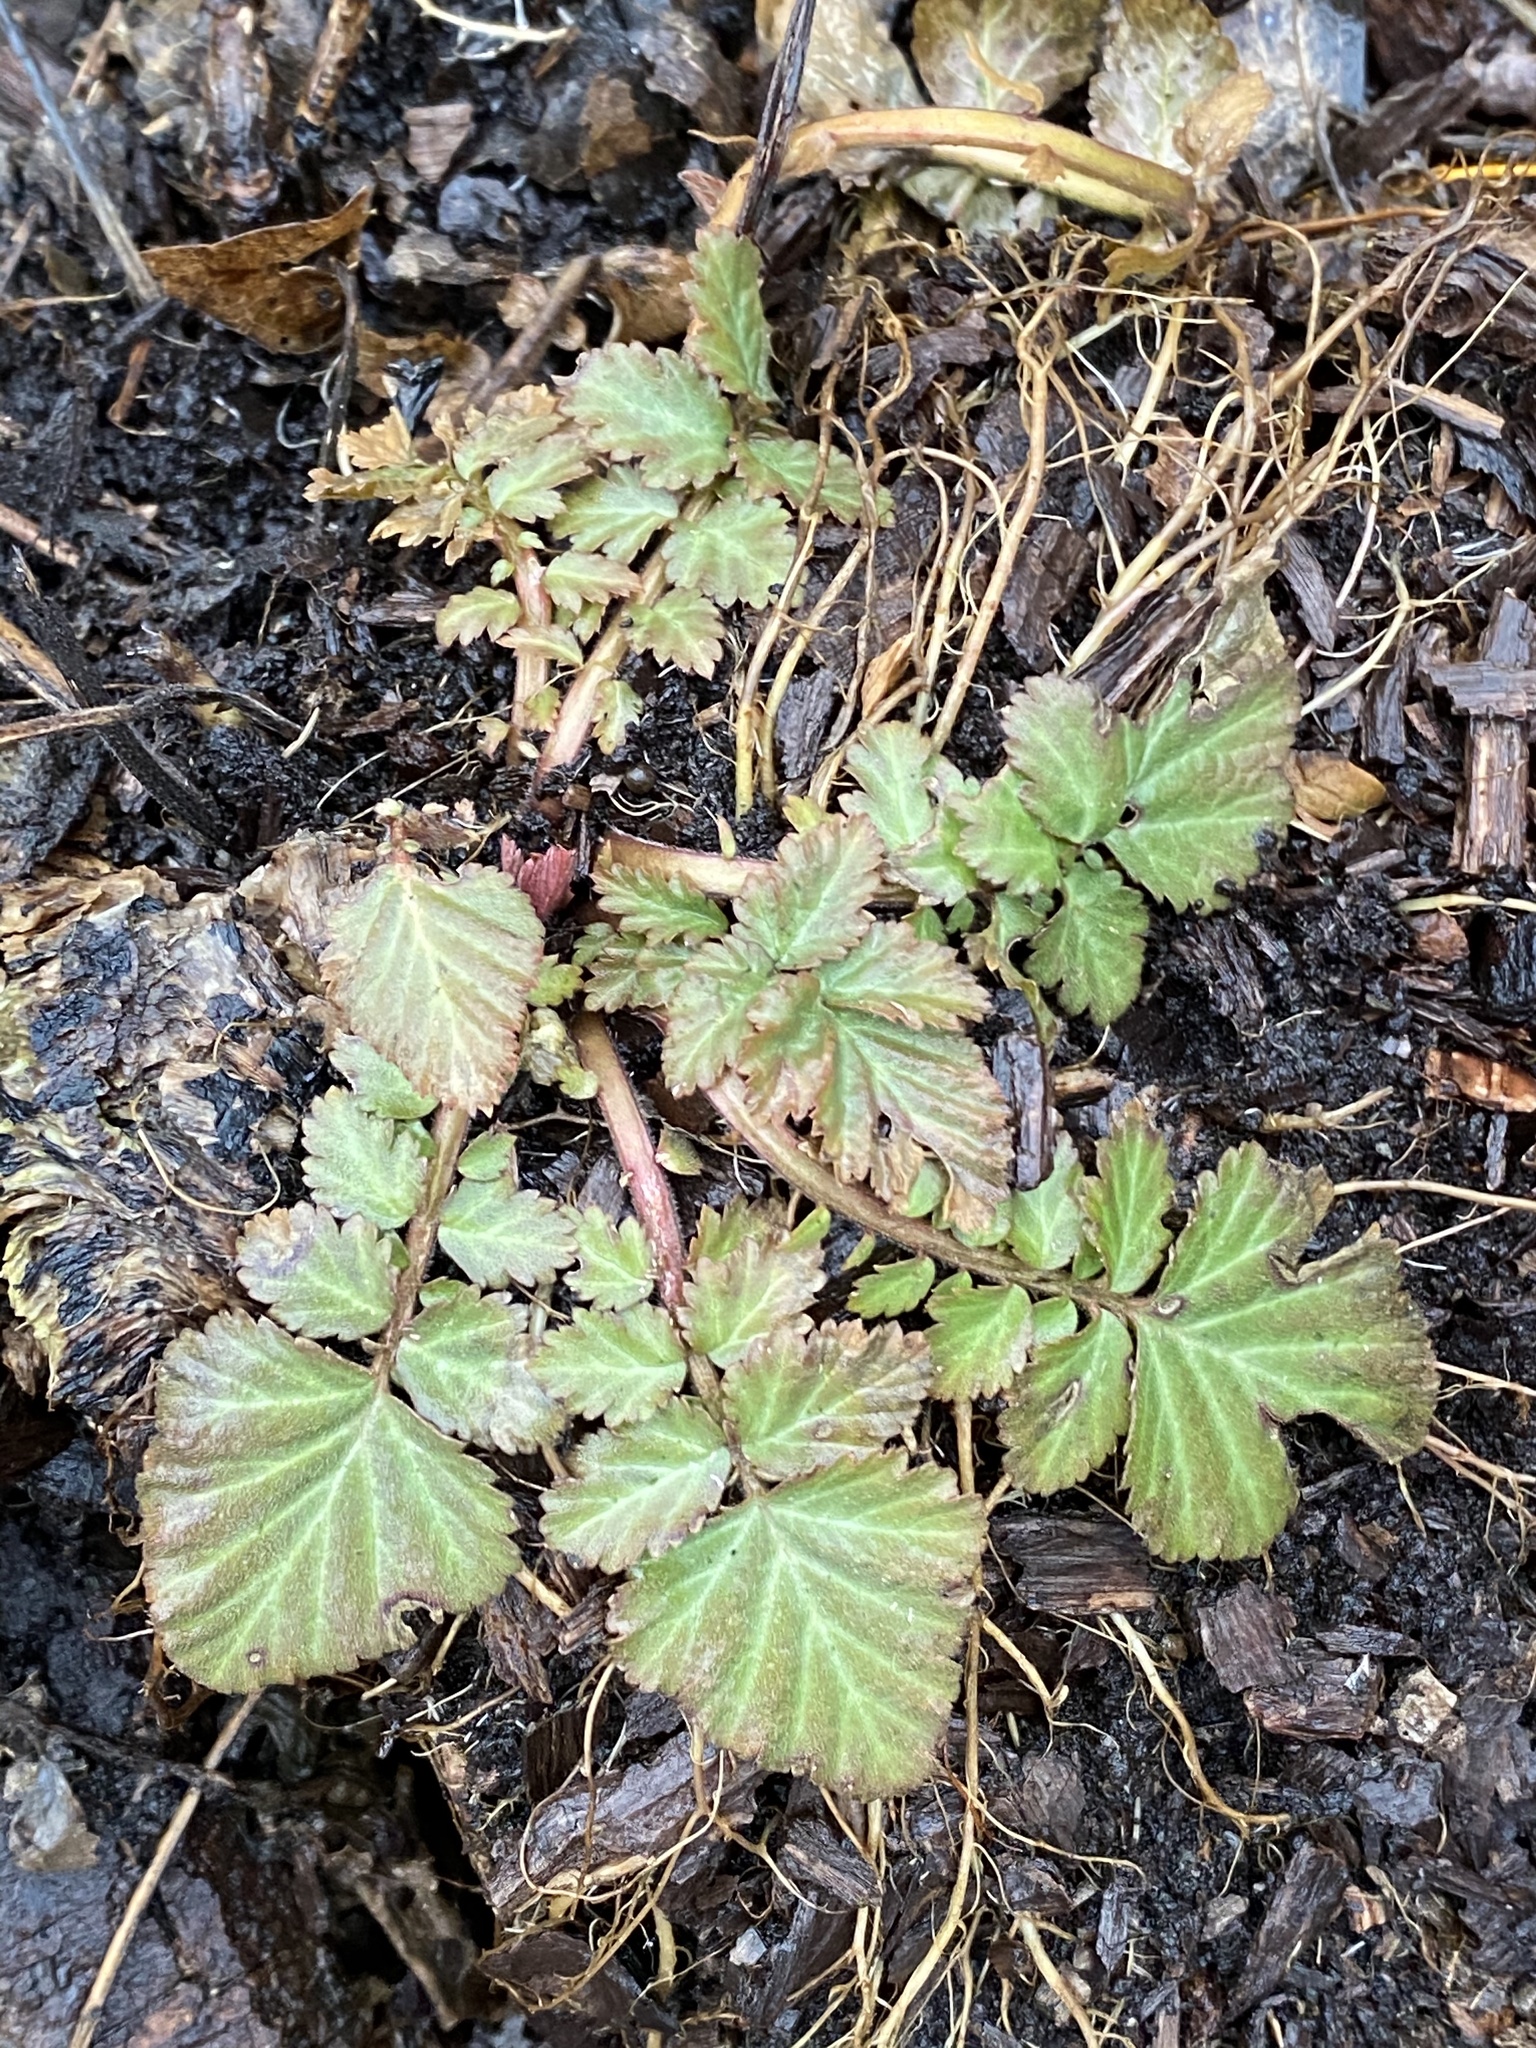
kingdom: Plantae
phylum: Tracheophyta
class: Magnoliopsida
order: Rosales
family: Rosaceae
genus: Geum
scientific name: Geum canadense
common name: White avens
